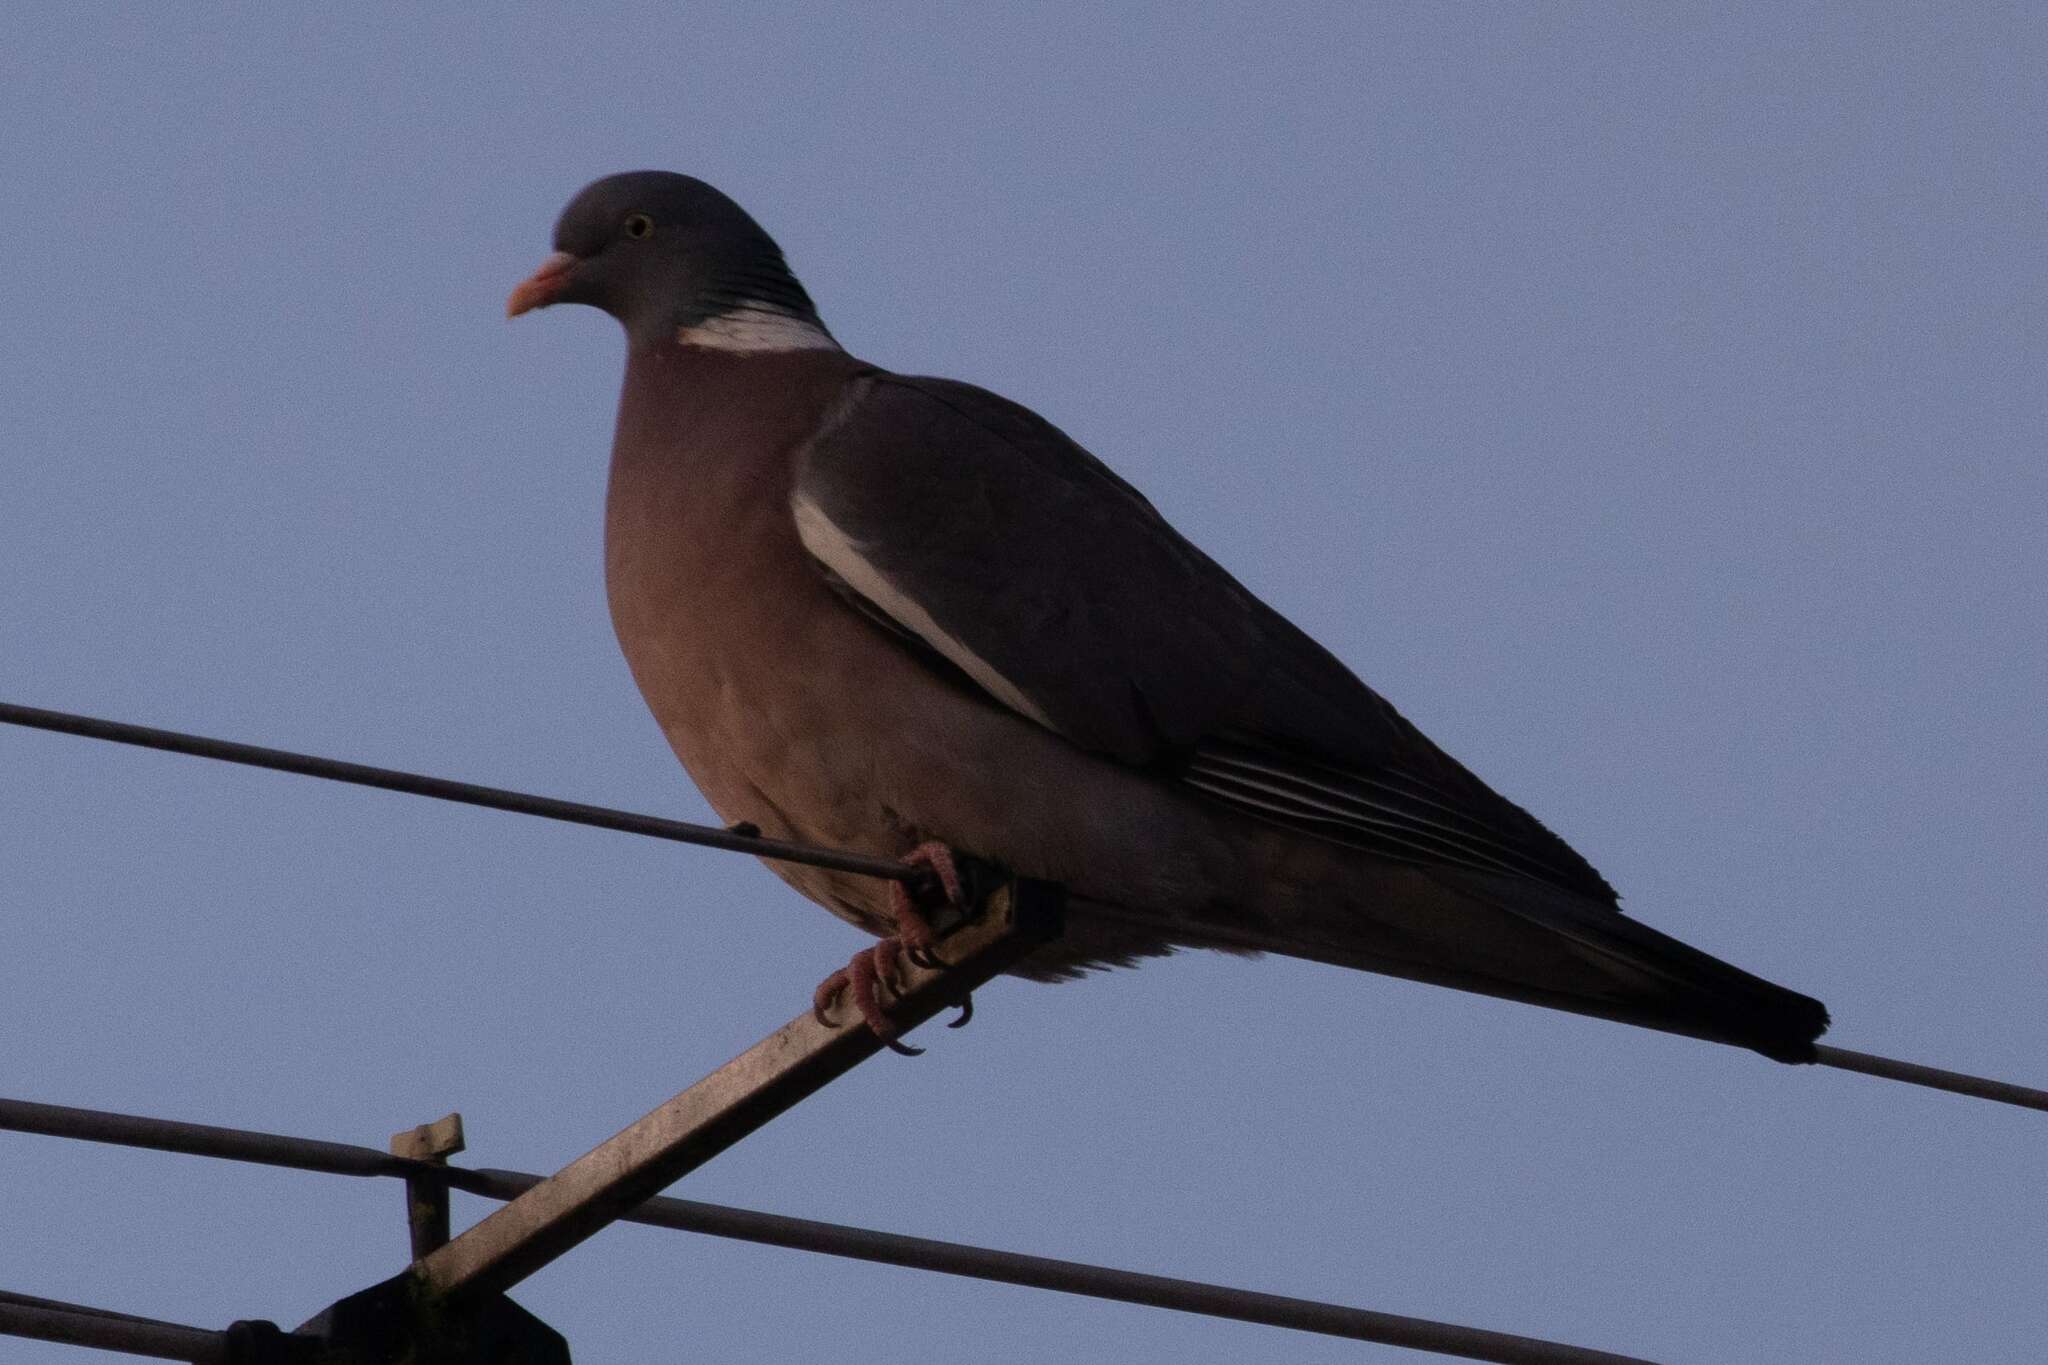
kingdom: Animalia
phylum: Chordata
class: Aves
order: Columbiformes
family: Columbidae
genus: Columba
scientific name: Columba palumbus
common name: Common wood pigeon
